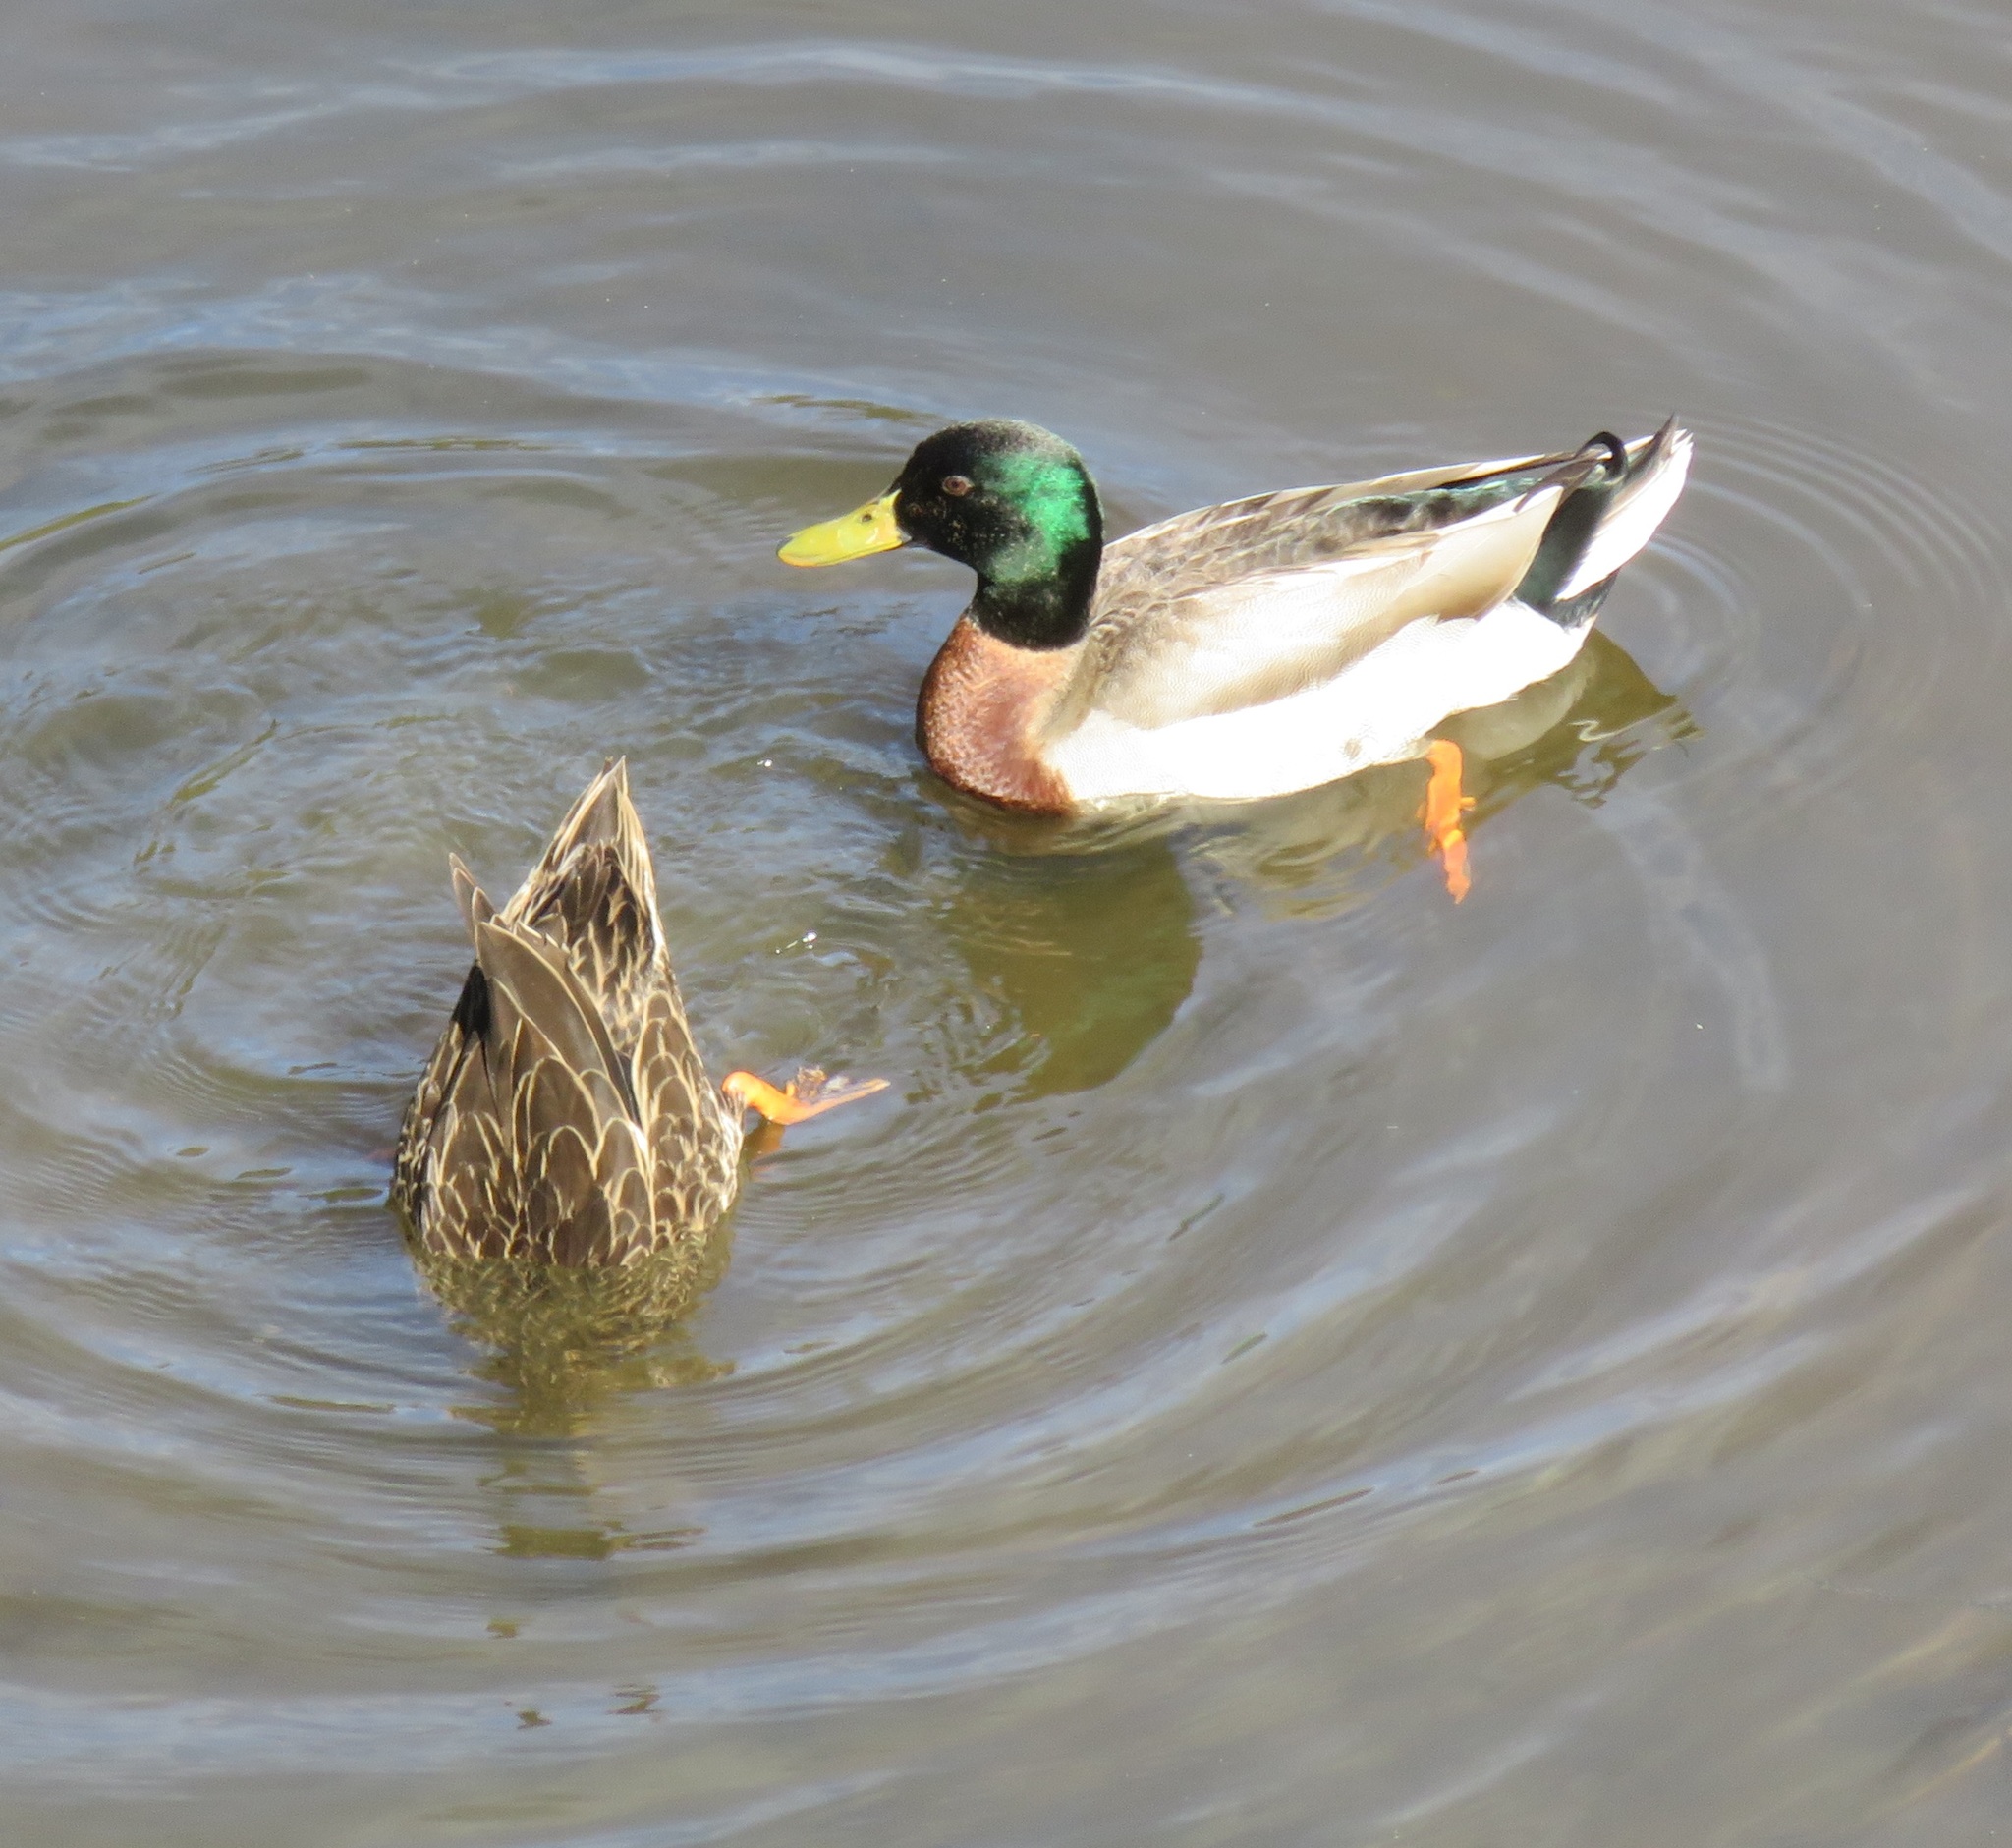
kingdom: Animalia
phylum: Chordata
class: Aves
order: Anseriformes
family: Anatidae
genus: Anas
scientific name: Anas platyrhynchos
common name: Mallard
